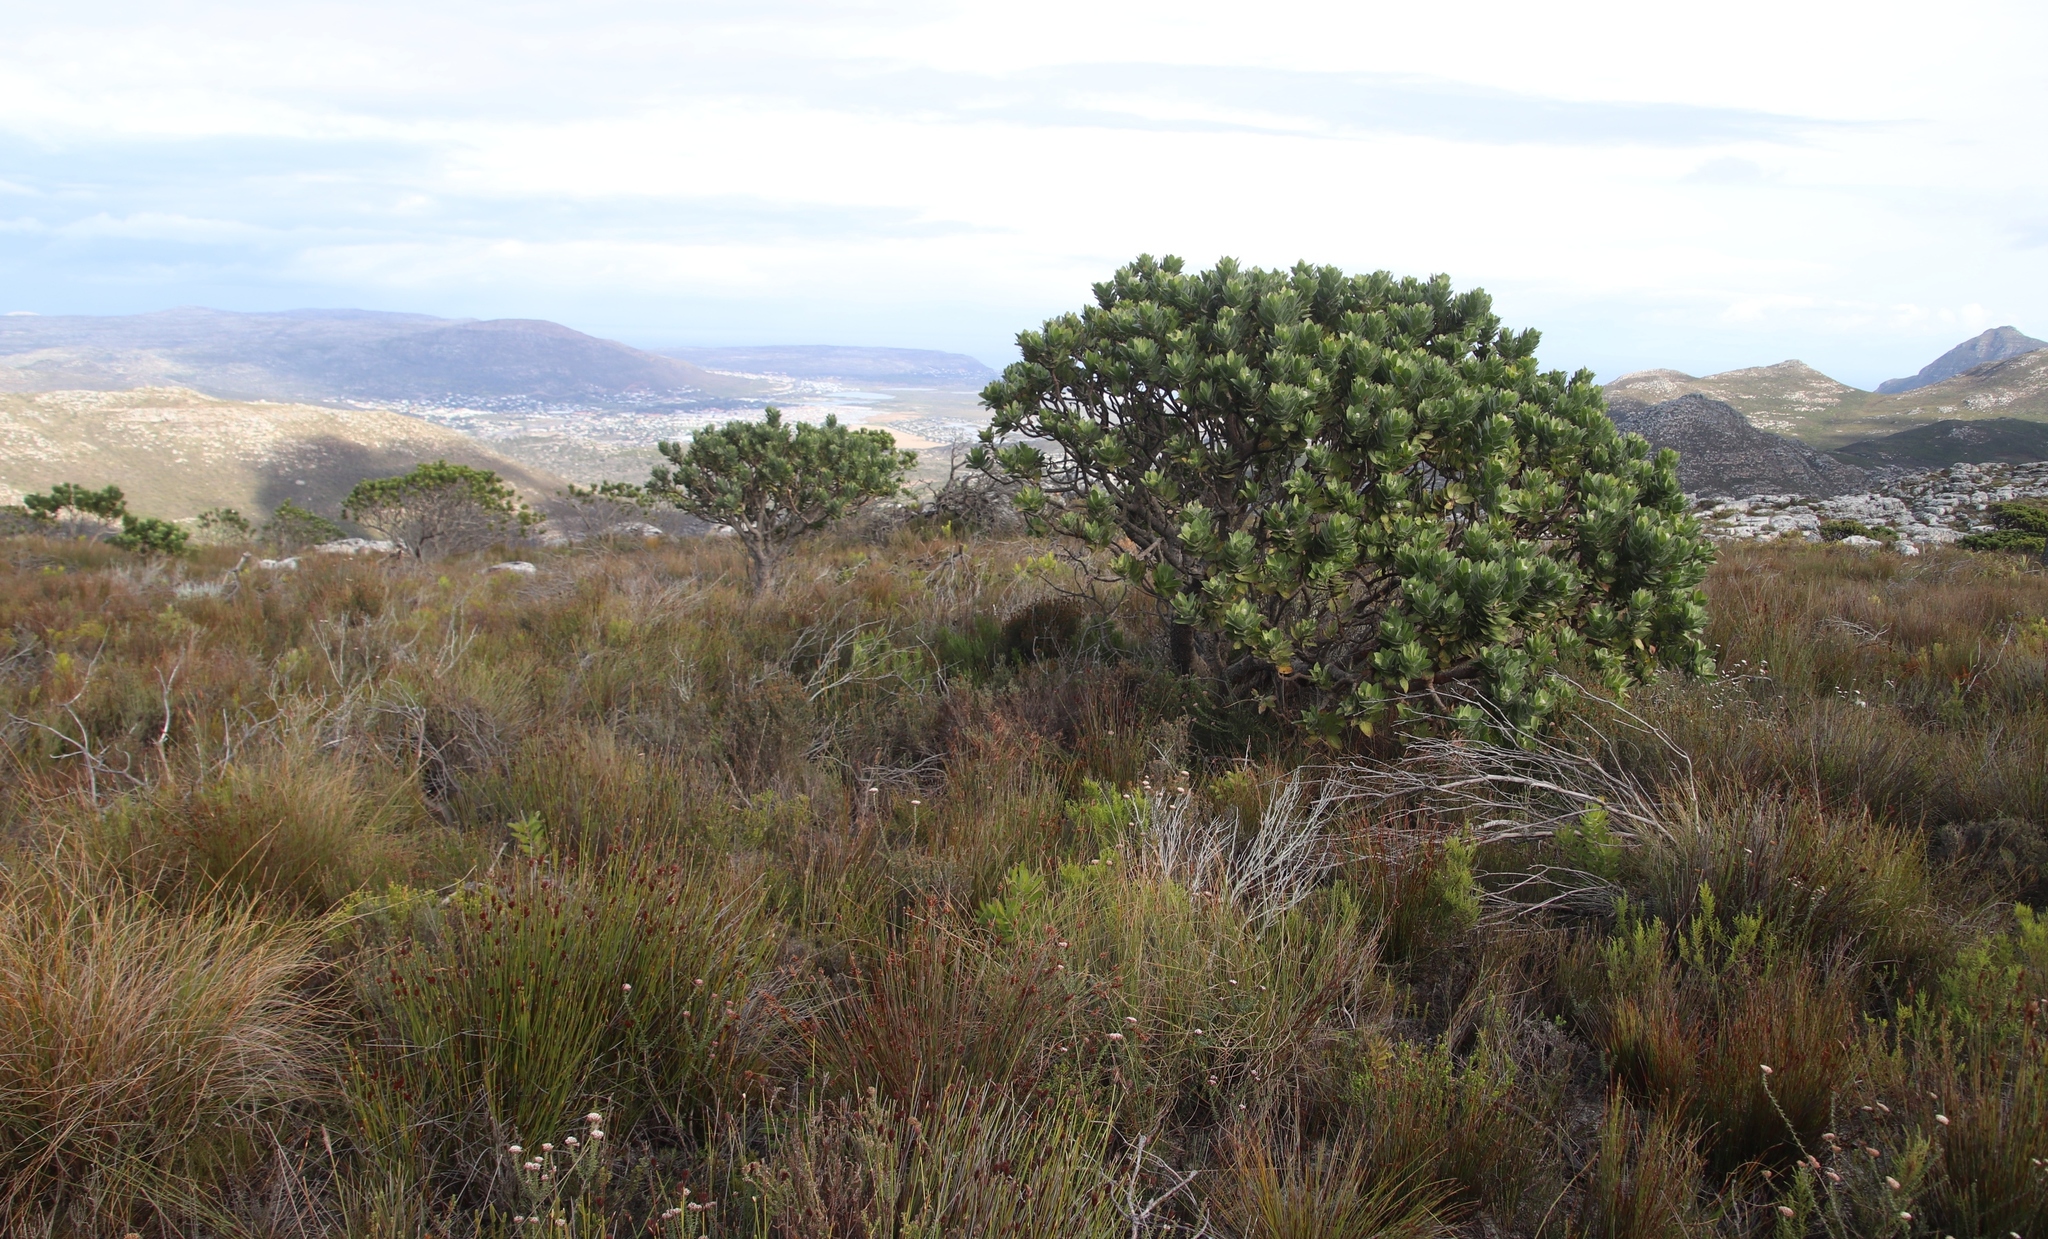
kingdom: Plantae
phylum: Tracheophyta
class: Magnoliopsida
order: Proteales
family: Proteaceae
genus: Leucospermum
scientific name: Leucospermum conocarpodendron
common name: Tree pincushion
